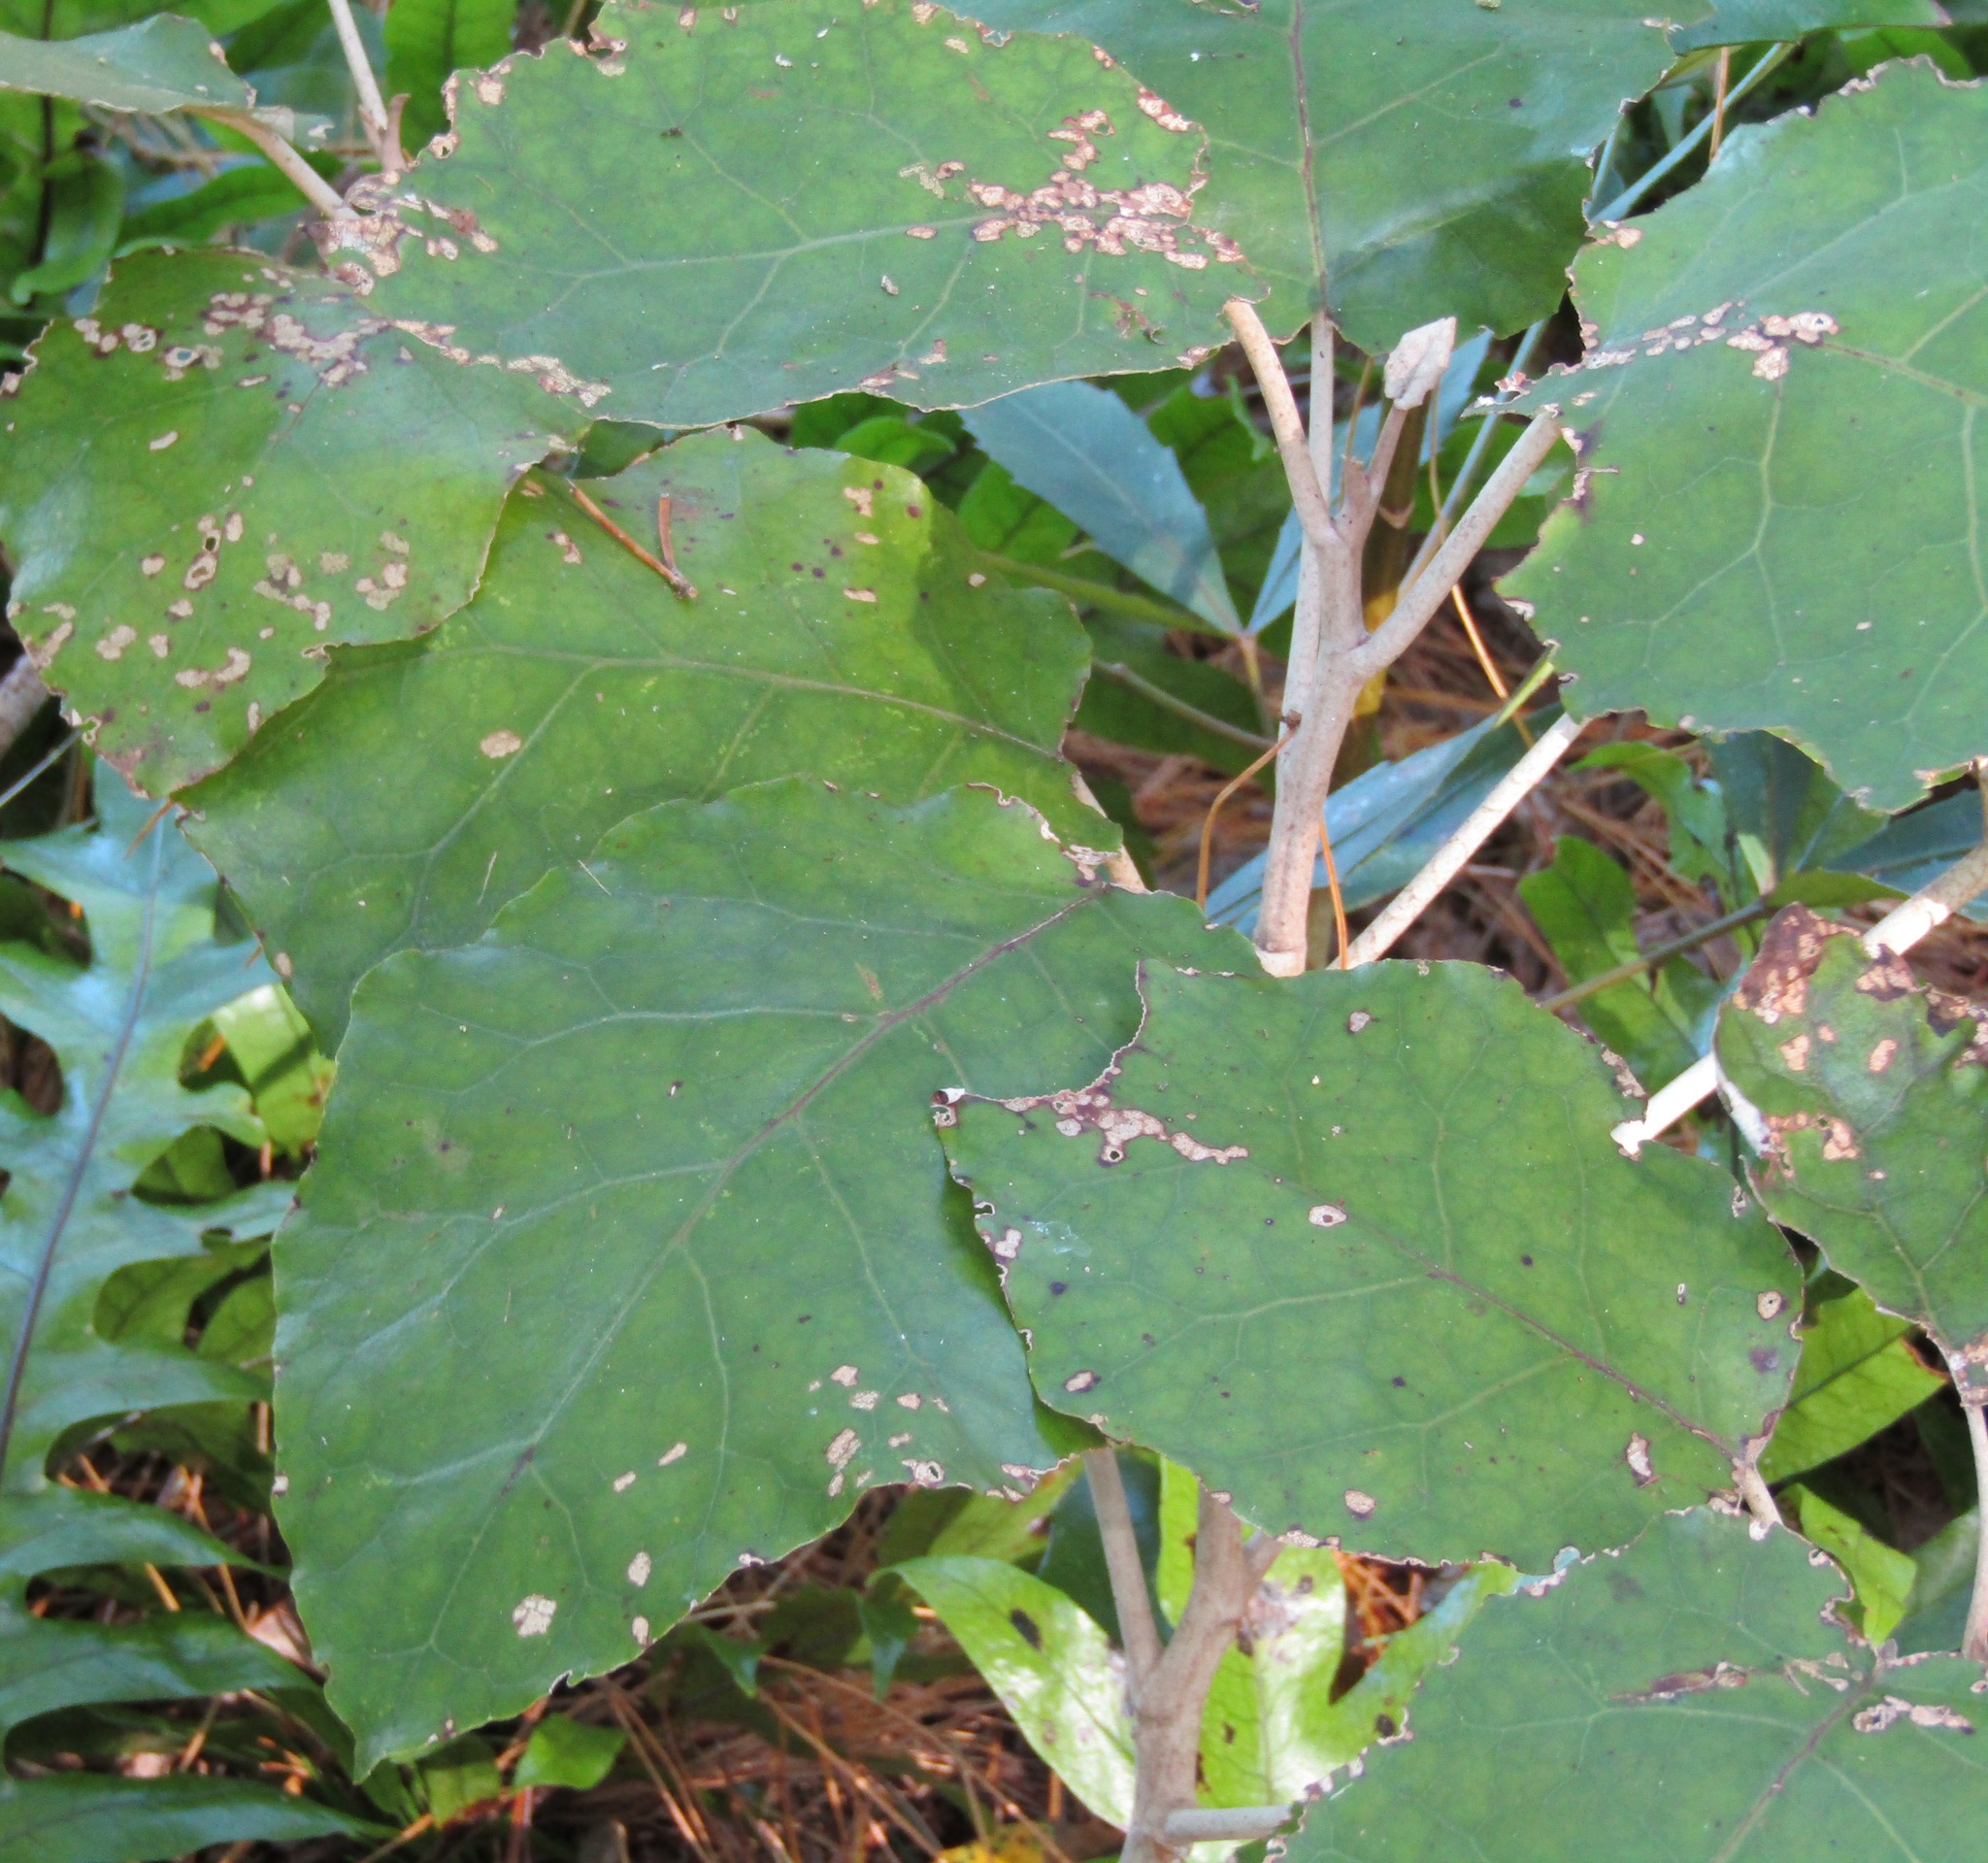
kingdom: Plantae
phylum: Tracheophyta
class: Magnoliopsida
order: Asterales
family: Asteraceae
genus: Brachyglottis
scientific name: Brachyglottis repanda
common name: Hedge ragwort
